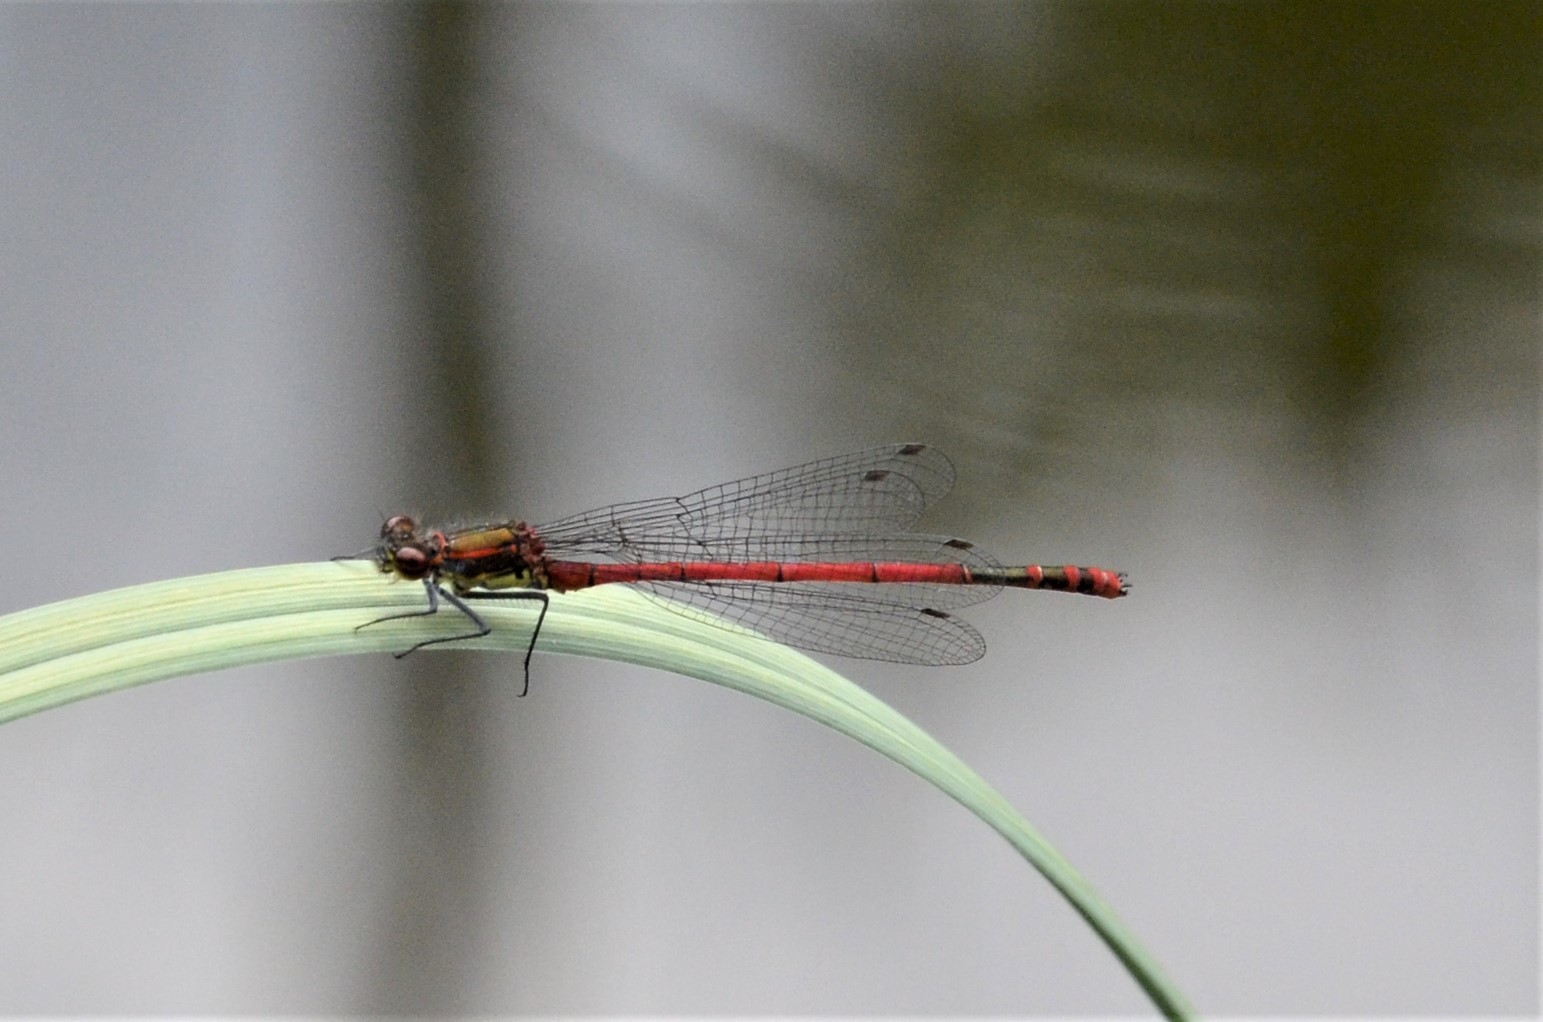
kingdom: Animalia
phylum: Arthropoda
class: Insecta
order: Odonata
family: Coenagrionidae
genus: Pyrrhosoma
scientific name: Pyrrhosoma nymphula
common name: Large red damsel
